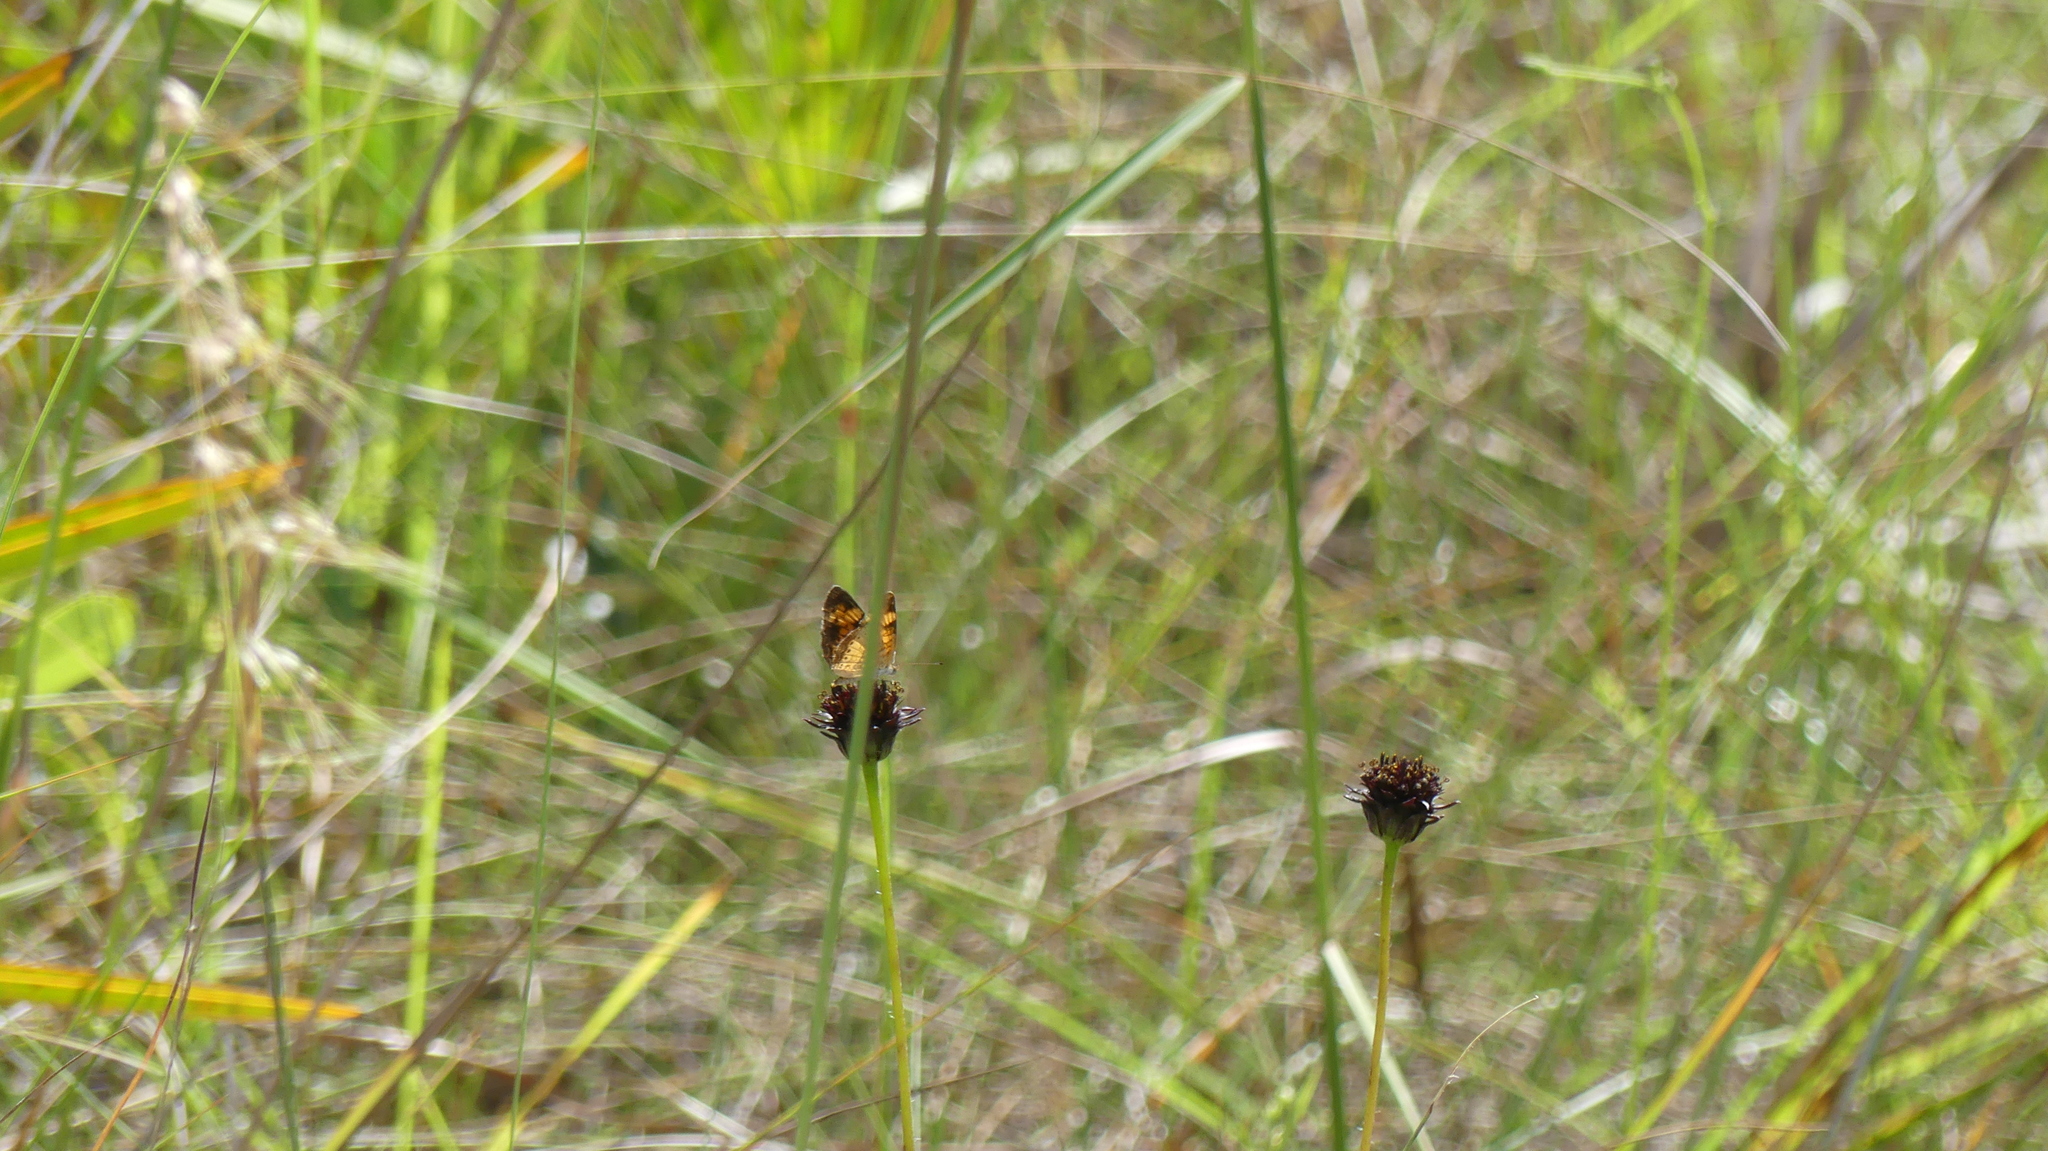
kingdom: Animalia
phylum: Arthropoda
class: Insecta
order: Lepidoptera
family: Nymphalidae
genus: Phyciodes
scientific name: Phyciodes tharos
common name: Pearl crescent
